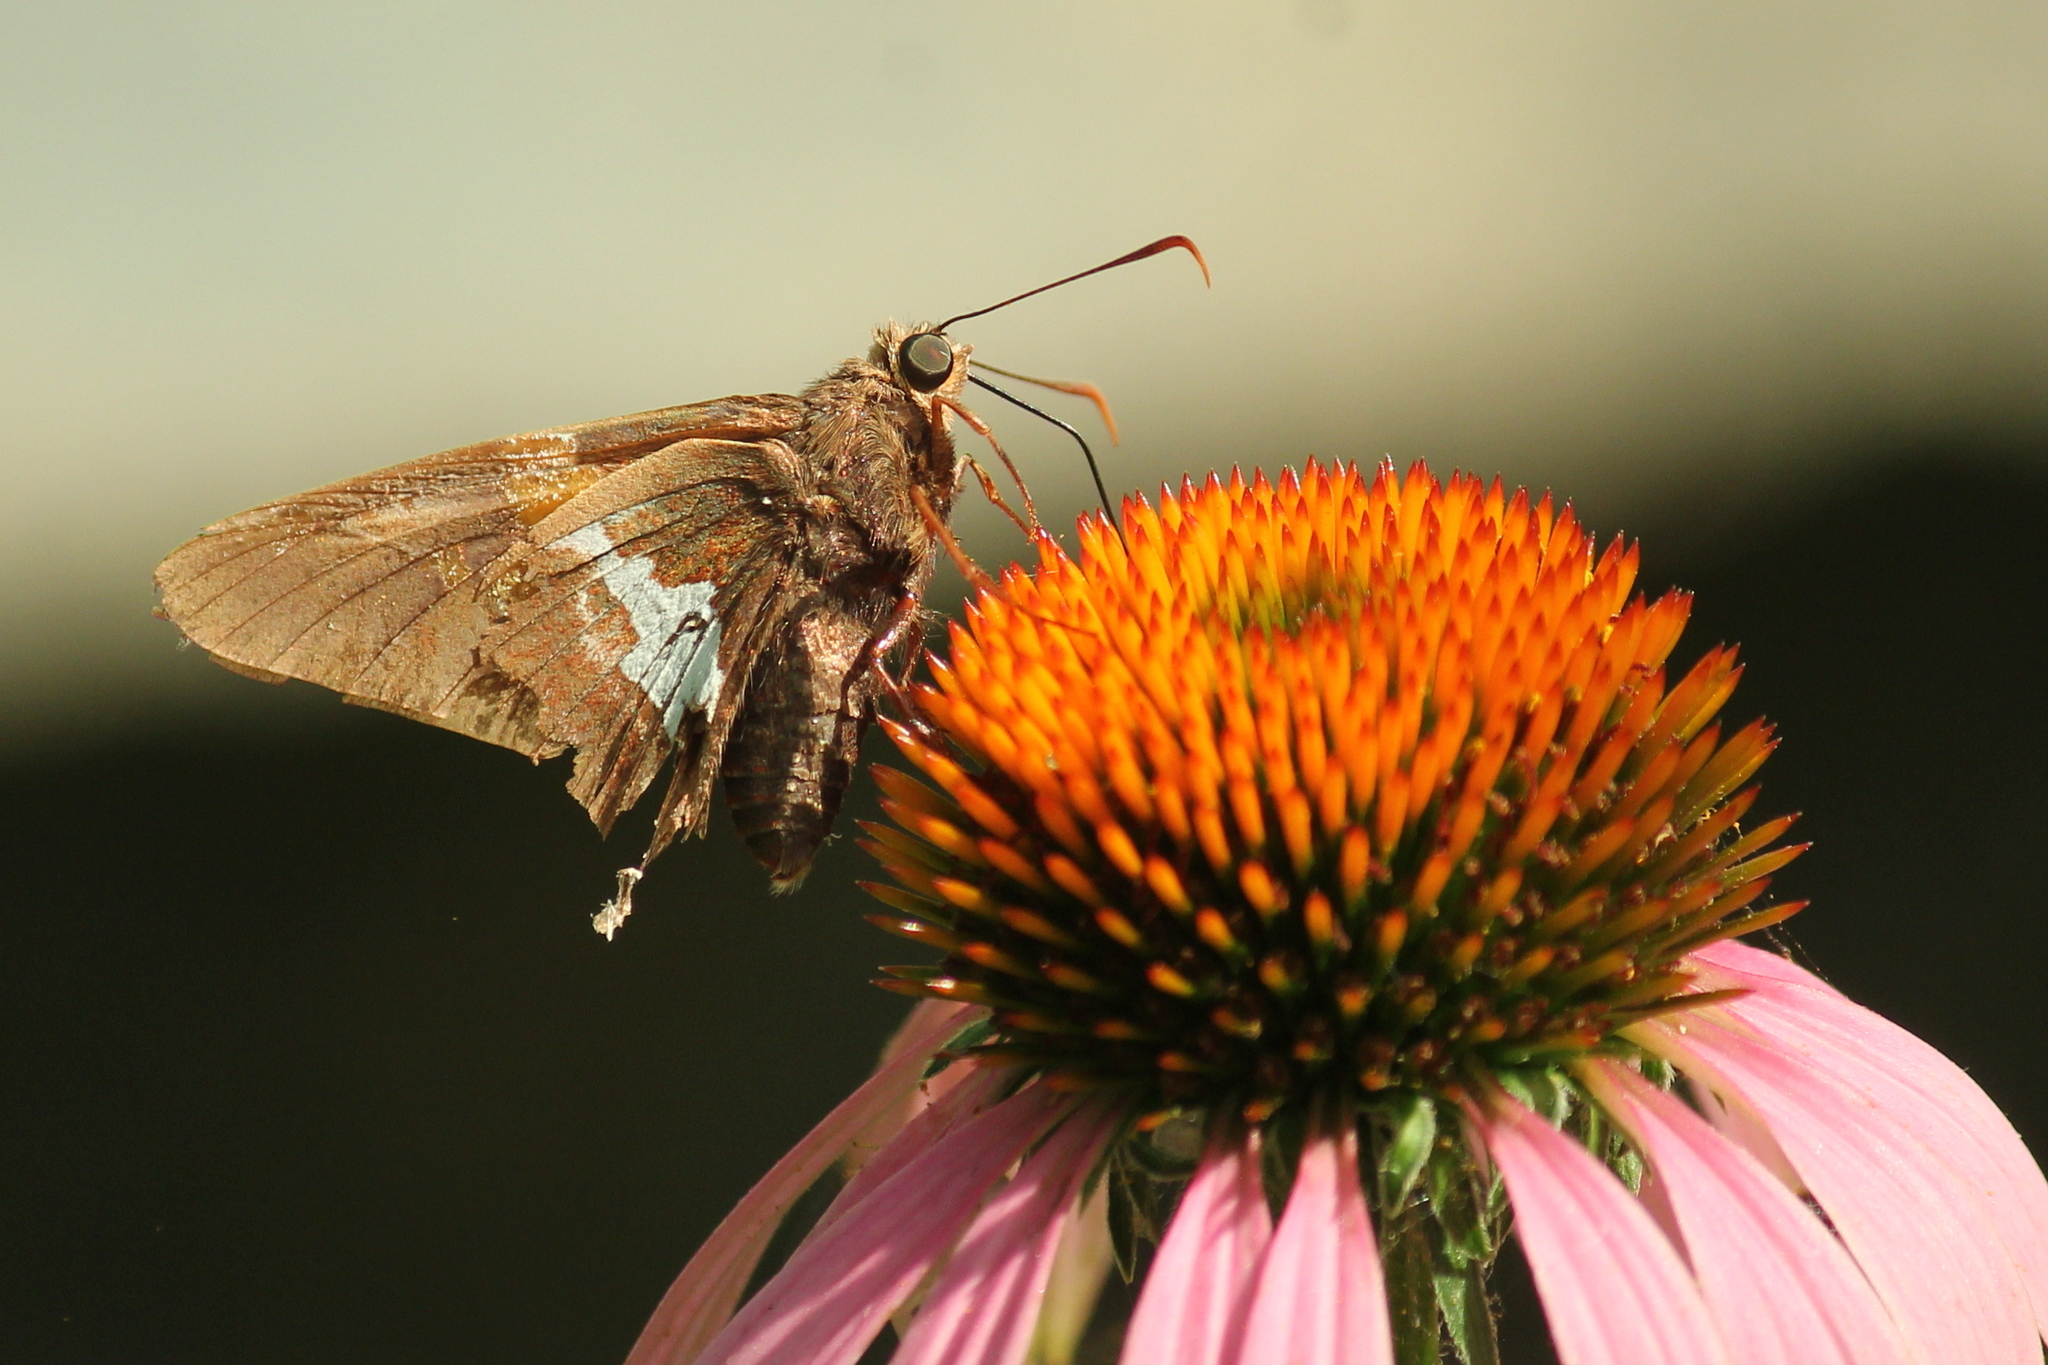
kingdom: Animalia
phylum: Arthropoda
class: Insecta
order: Lepidoptera
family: Hesperiidae
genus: Epargyreus
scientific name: Epargyreus clarus
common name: Silver-spotted skipper
